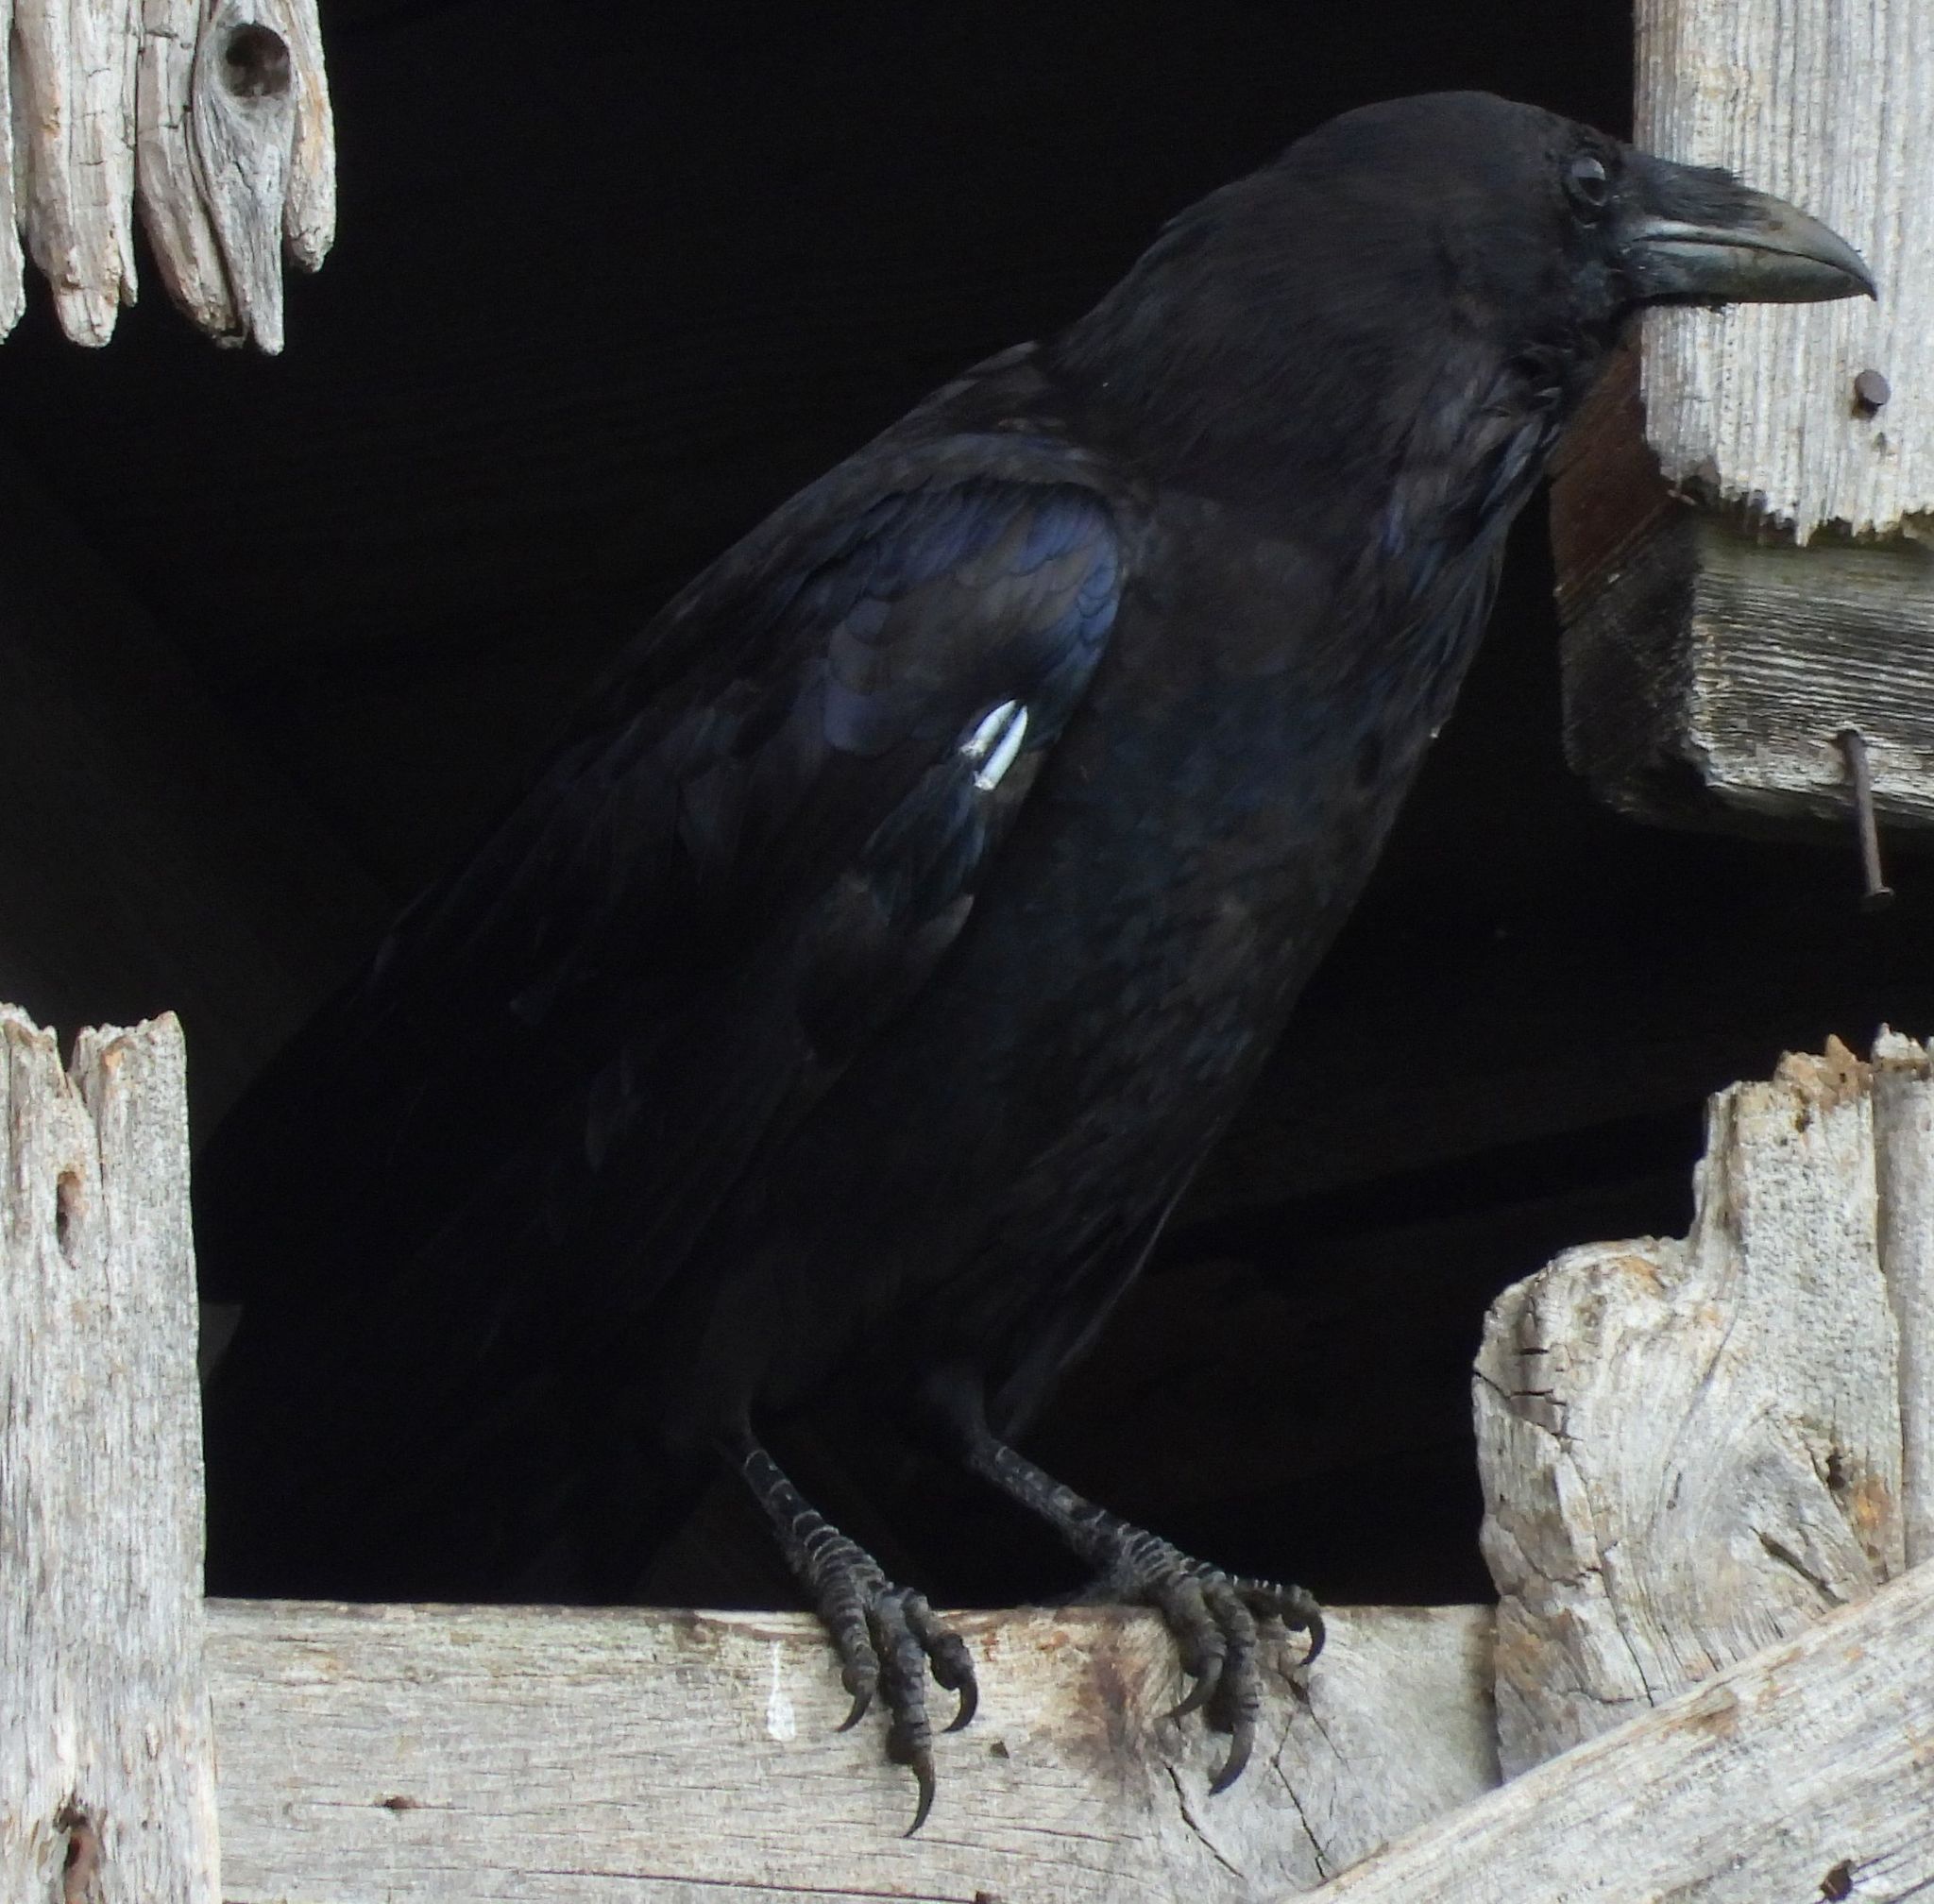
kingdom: Animalia
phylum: Chordata
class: Aves
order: Passeriformes
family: Corvidae
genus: Corvus
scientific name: Corvus corax
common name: Common raven
